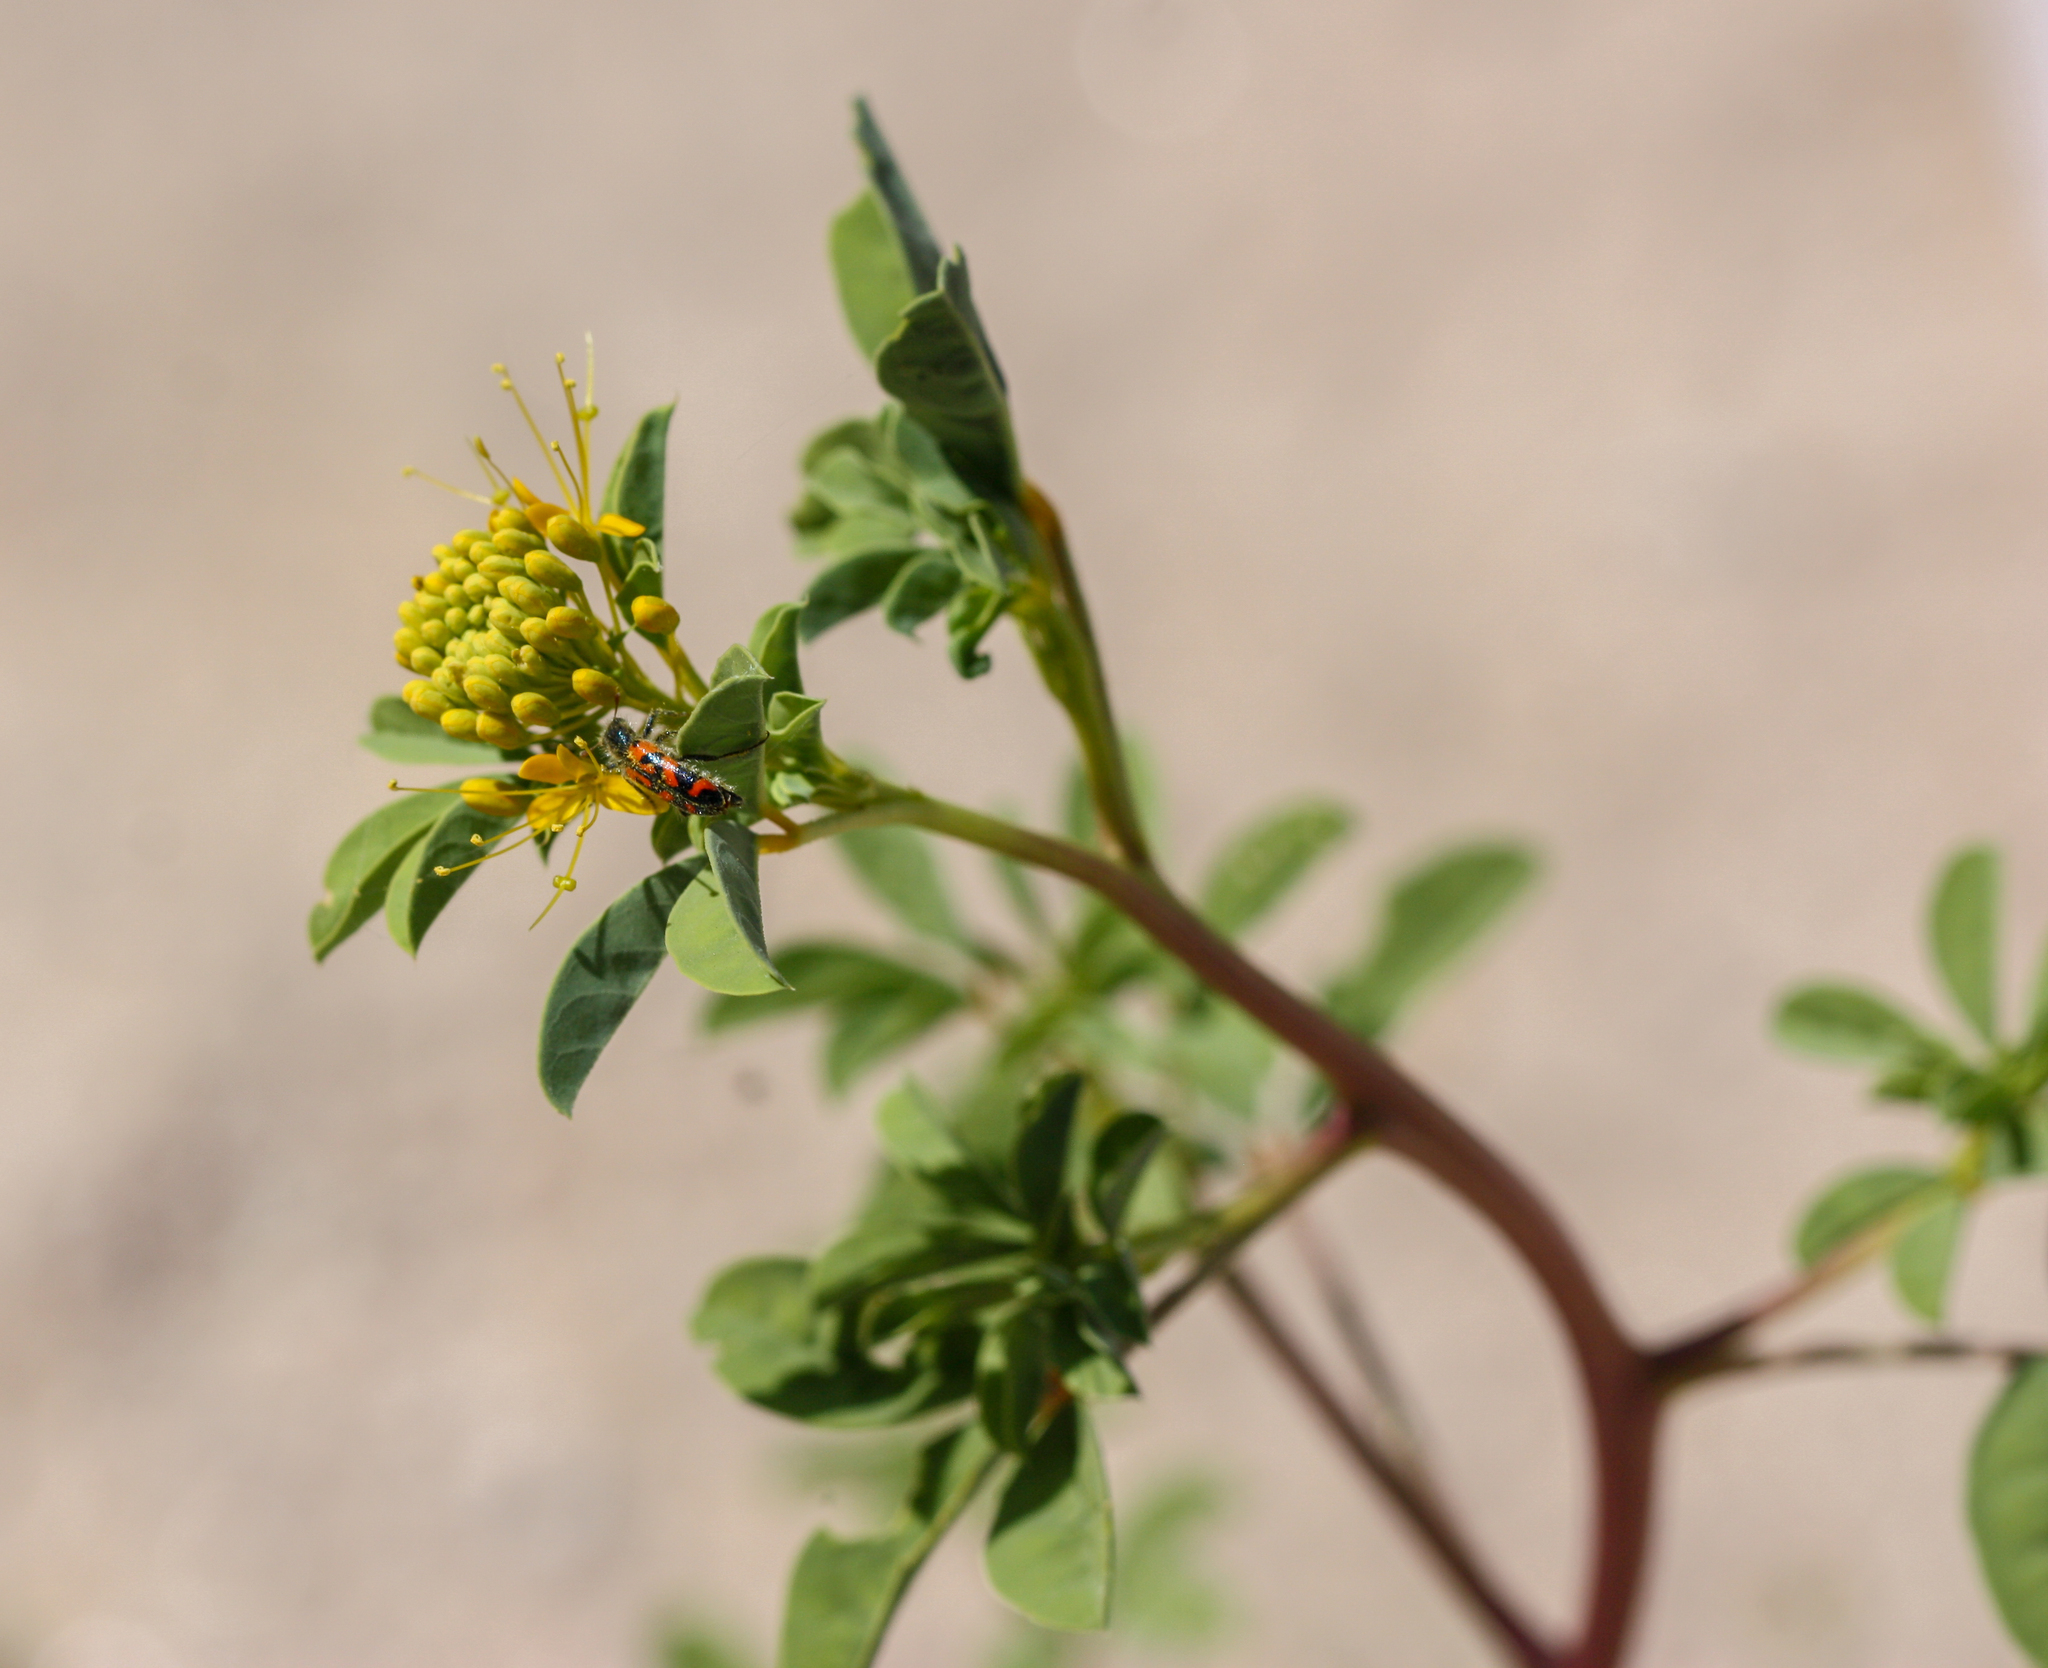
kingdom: Animalia
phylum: Arthropoda
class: Insecta
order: Coleoptera
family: Cleridae
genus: Trichodes
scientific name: Trichodes ornatus
